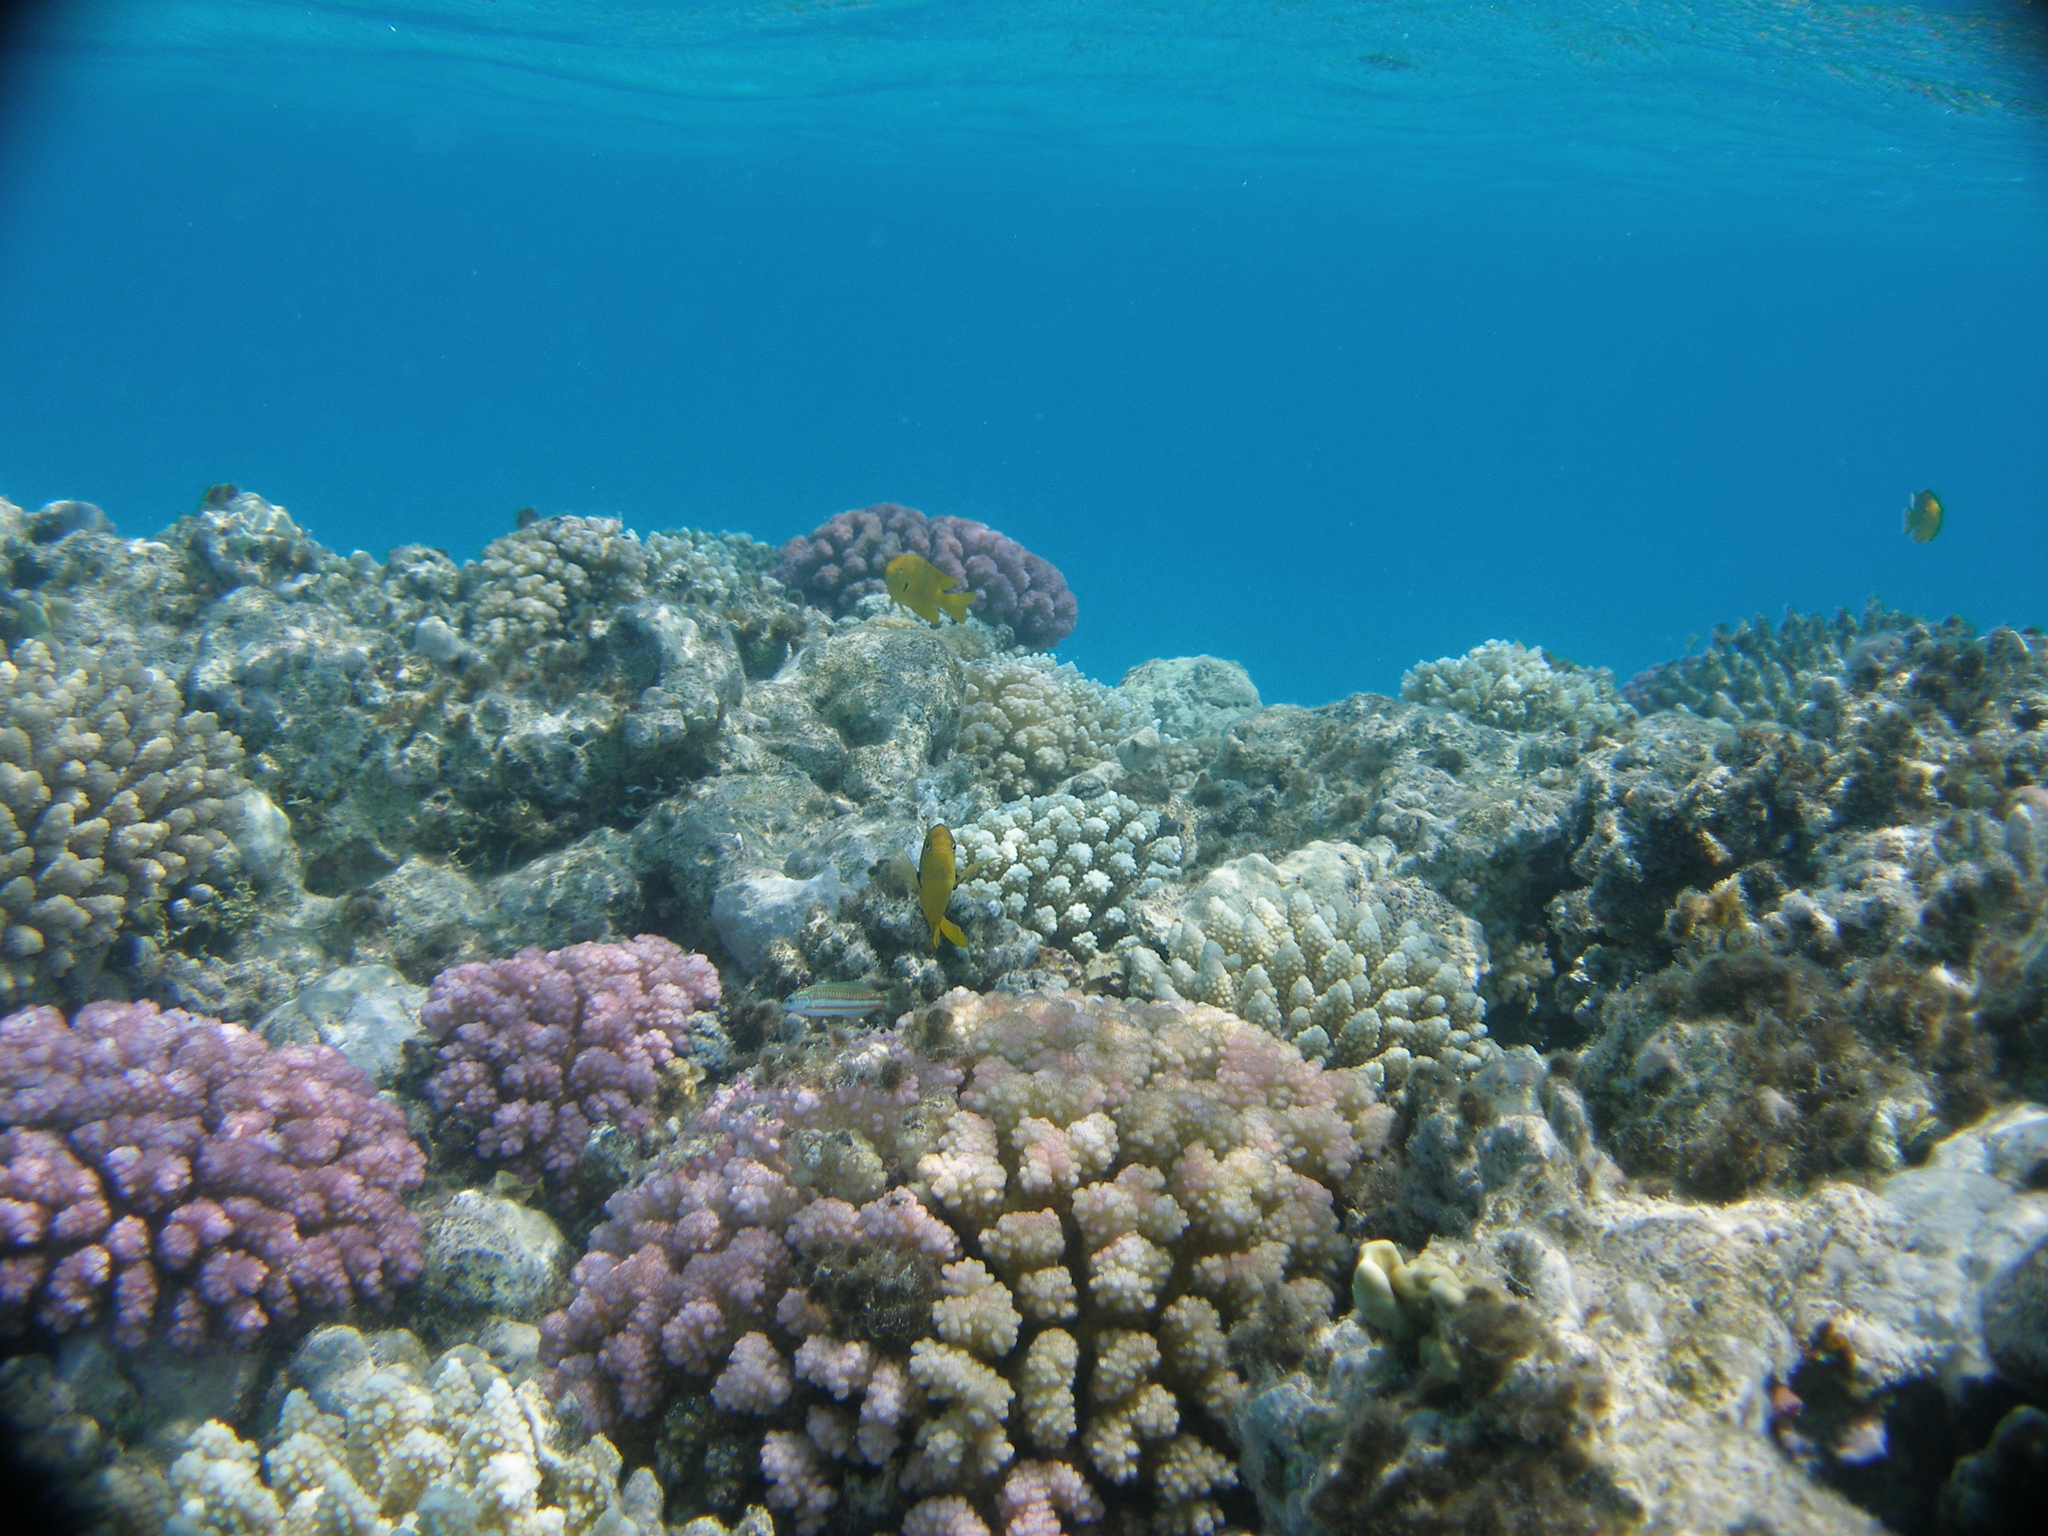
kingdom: Animalia
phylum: Chordata
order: Perciformes
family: Pomacentridae
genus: Pomacentrus
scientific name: Pomacentrus sulfureus
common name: Sulfur damsel
